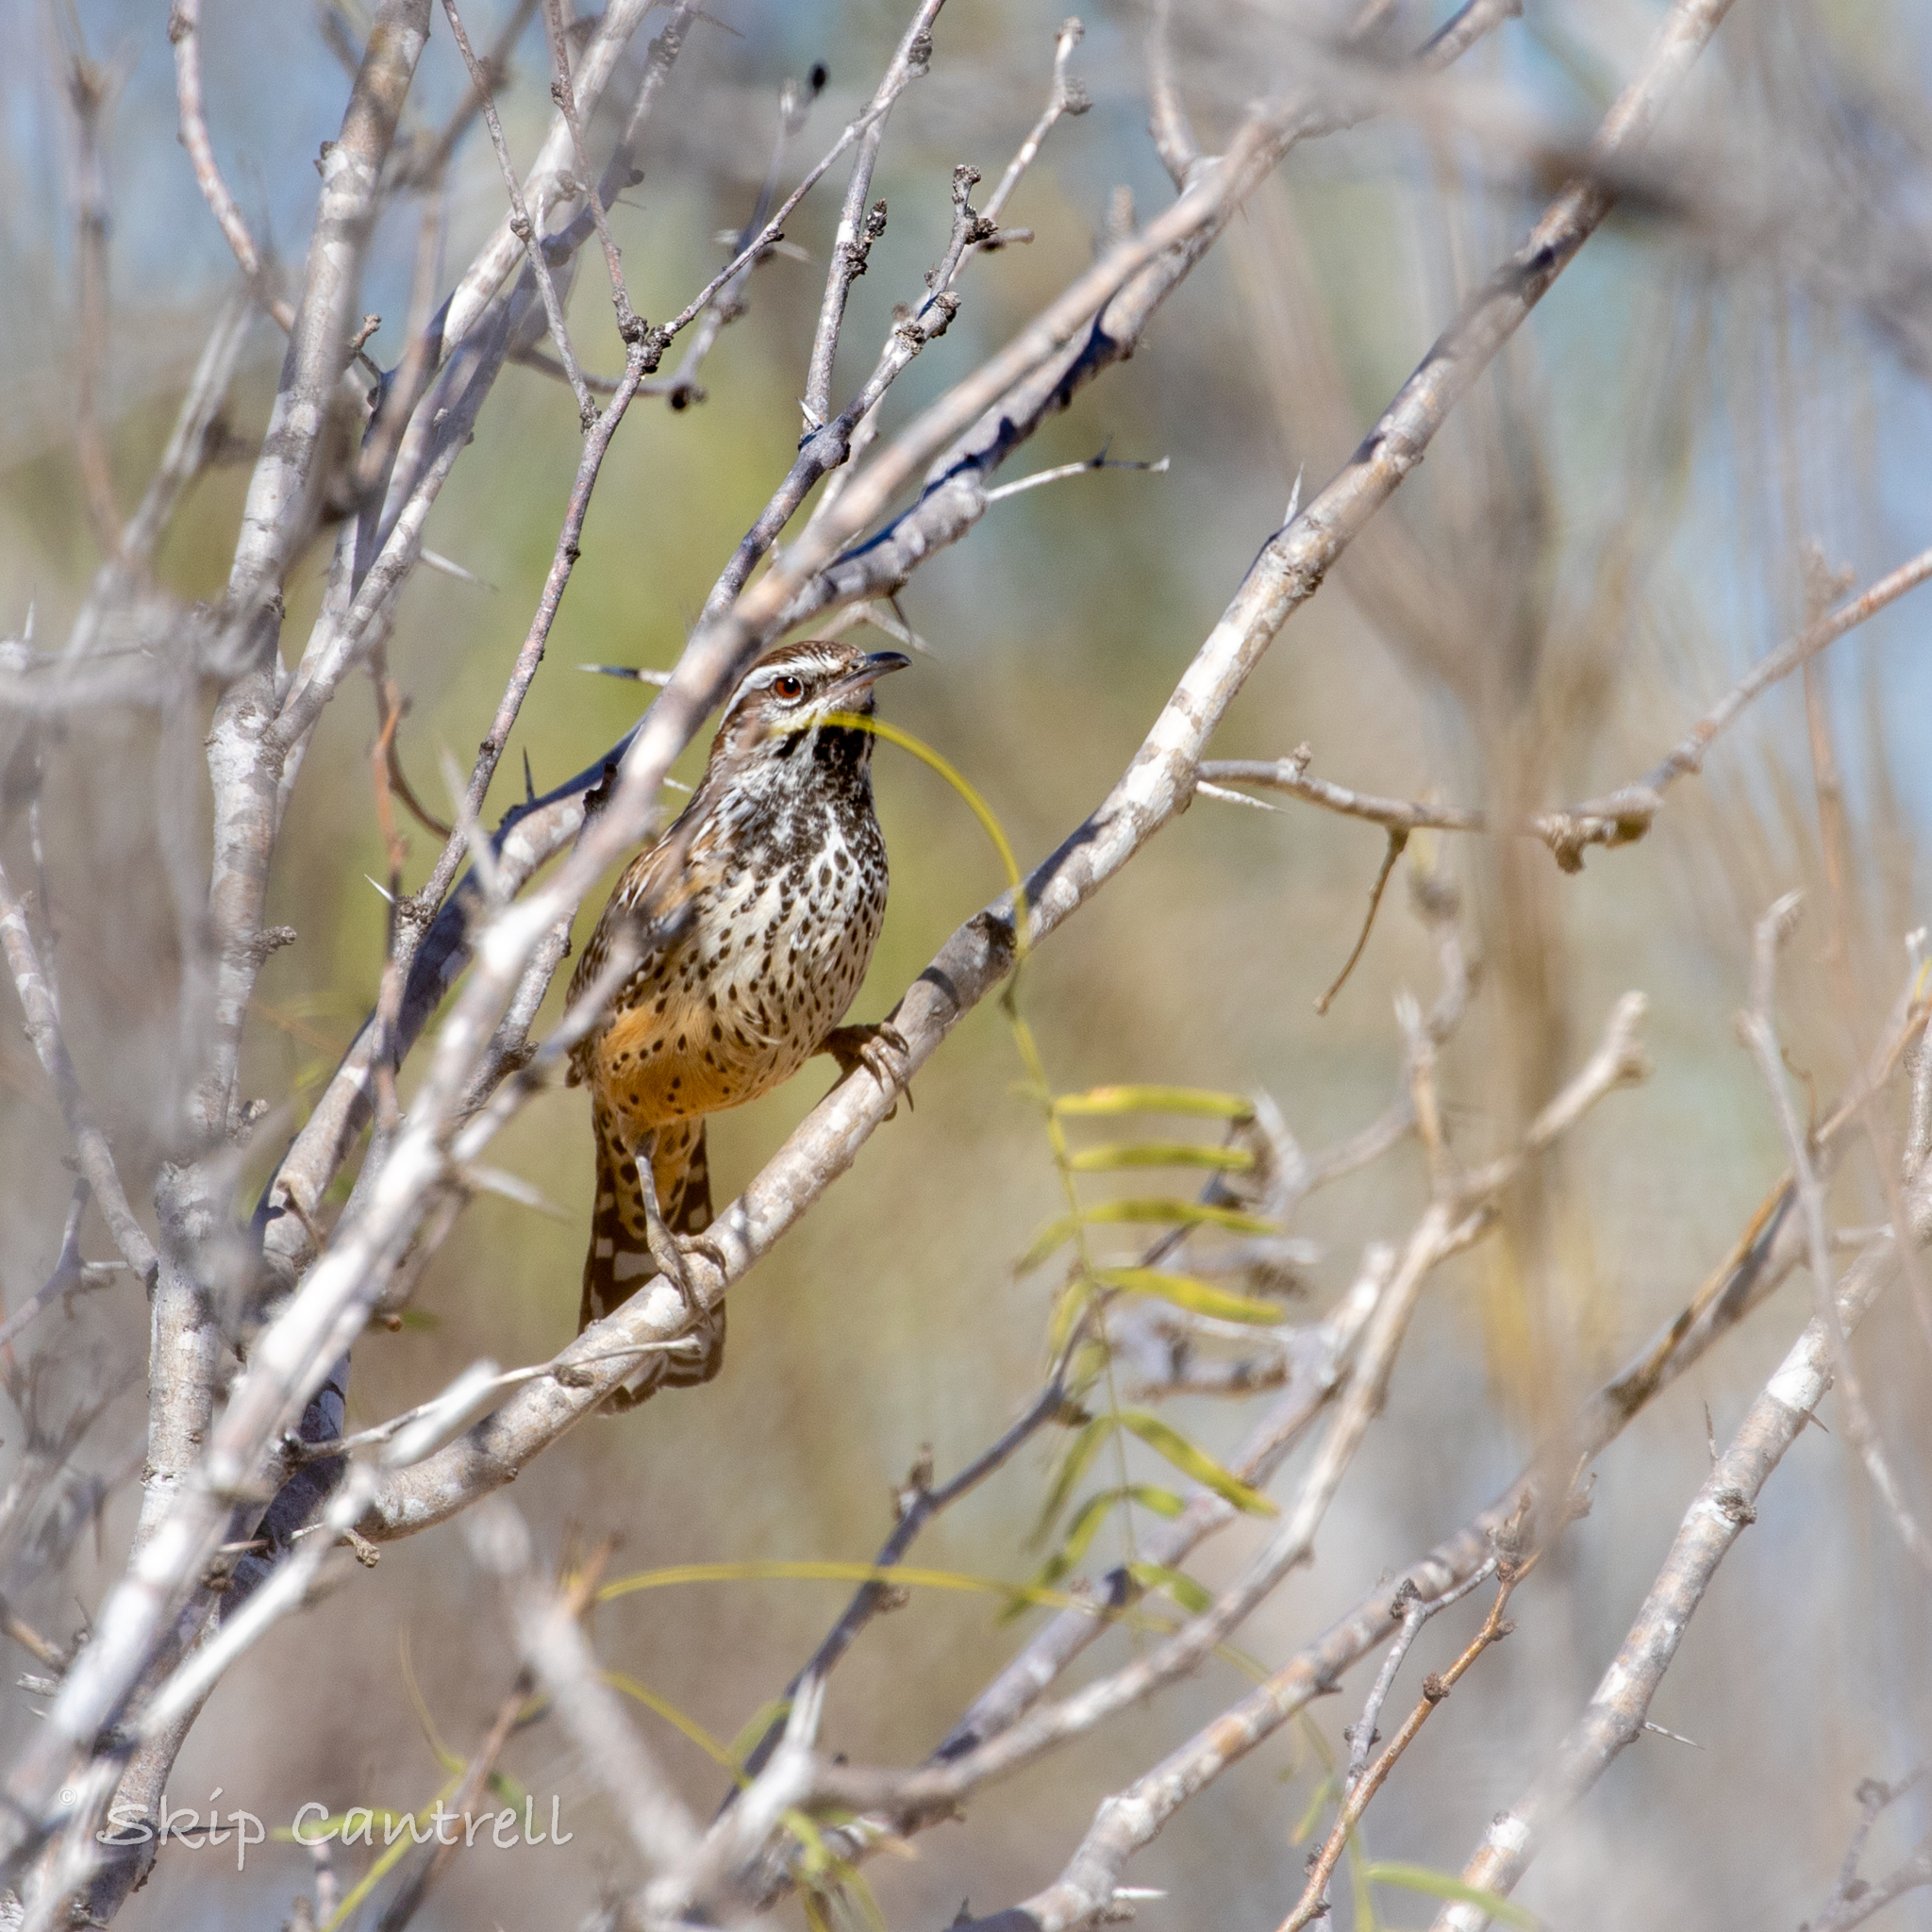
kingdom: Animalia
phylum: Chordata
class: Aves
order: Passeriformes
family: Troglodytidae
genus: Campylorhynchus
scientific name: Campylorhynchus brunneicapillus
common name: Cactus wren
